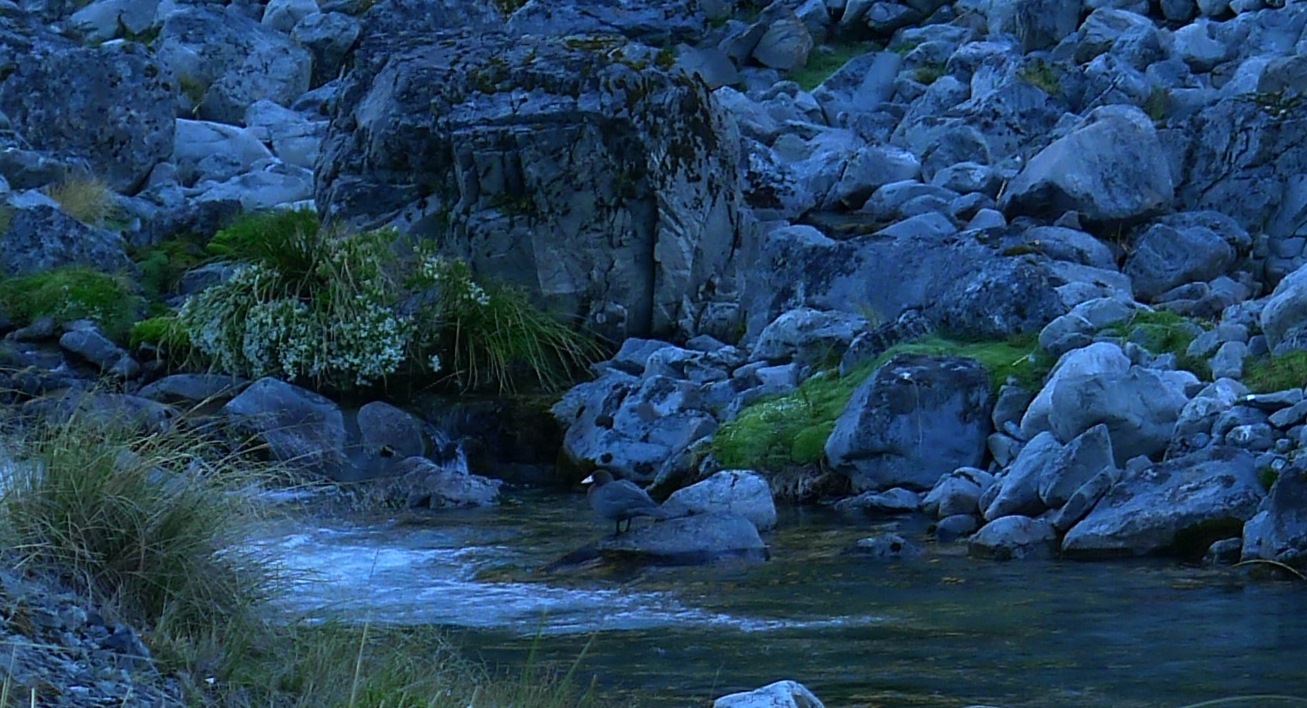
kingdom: Animalia
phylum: Chordata
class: Aves
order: Anseriformes
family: Anatidae
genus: Hymenolaimus
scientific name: Hymenolaimus malacorhynchos
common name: Blue duck
